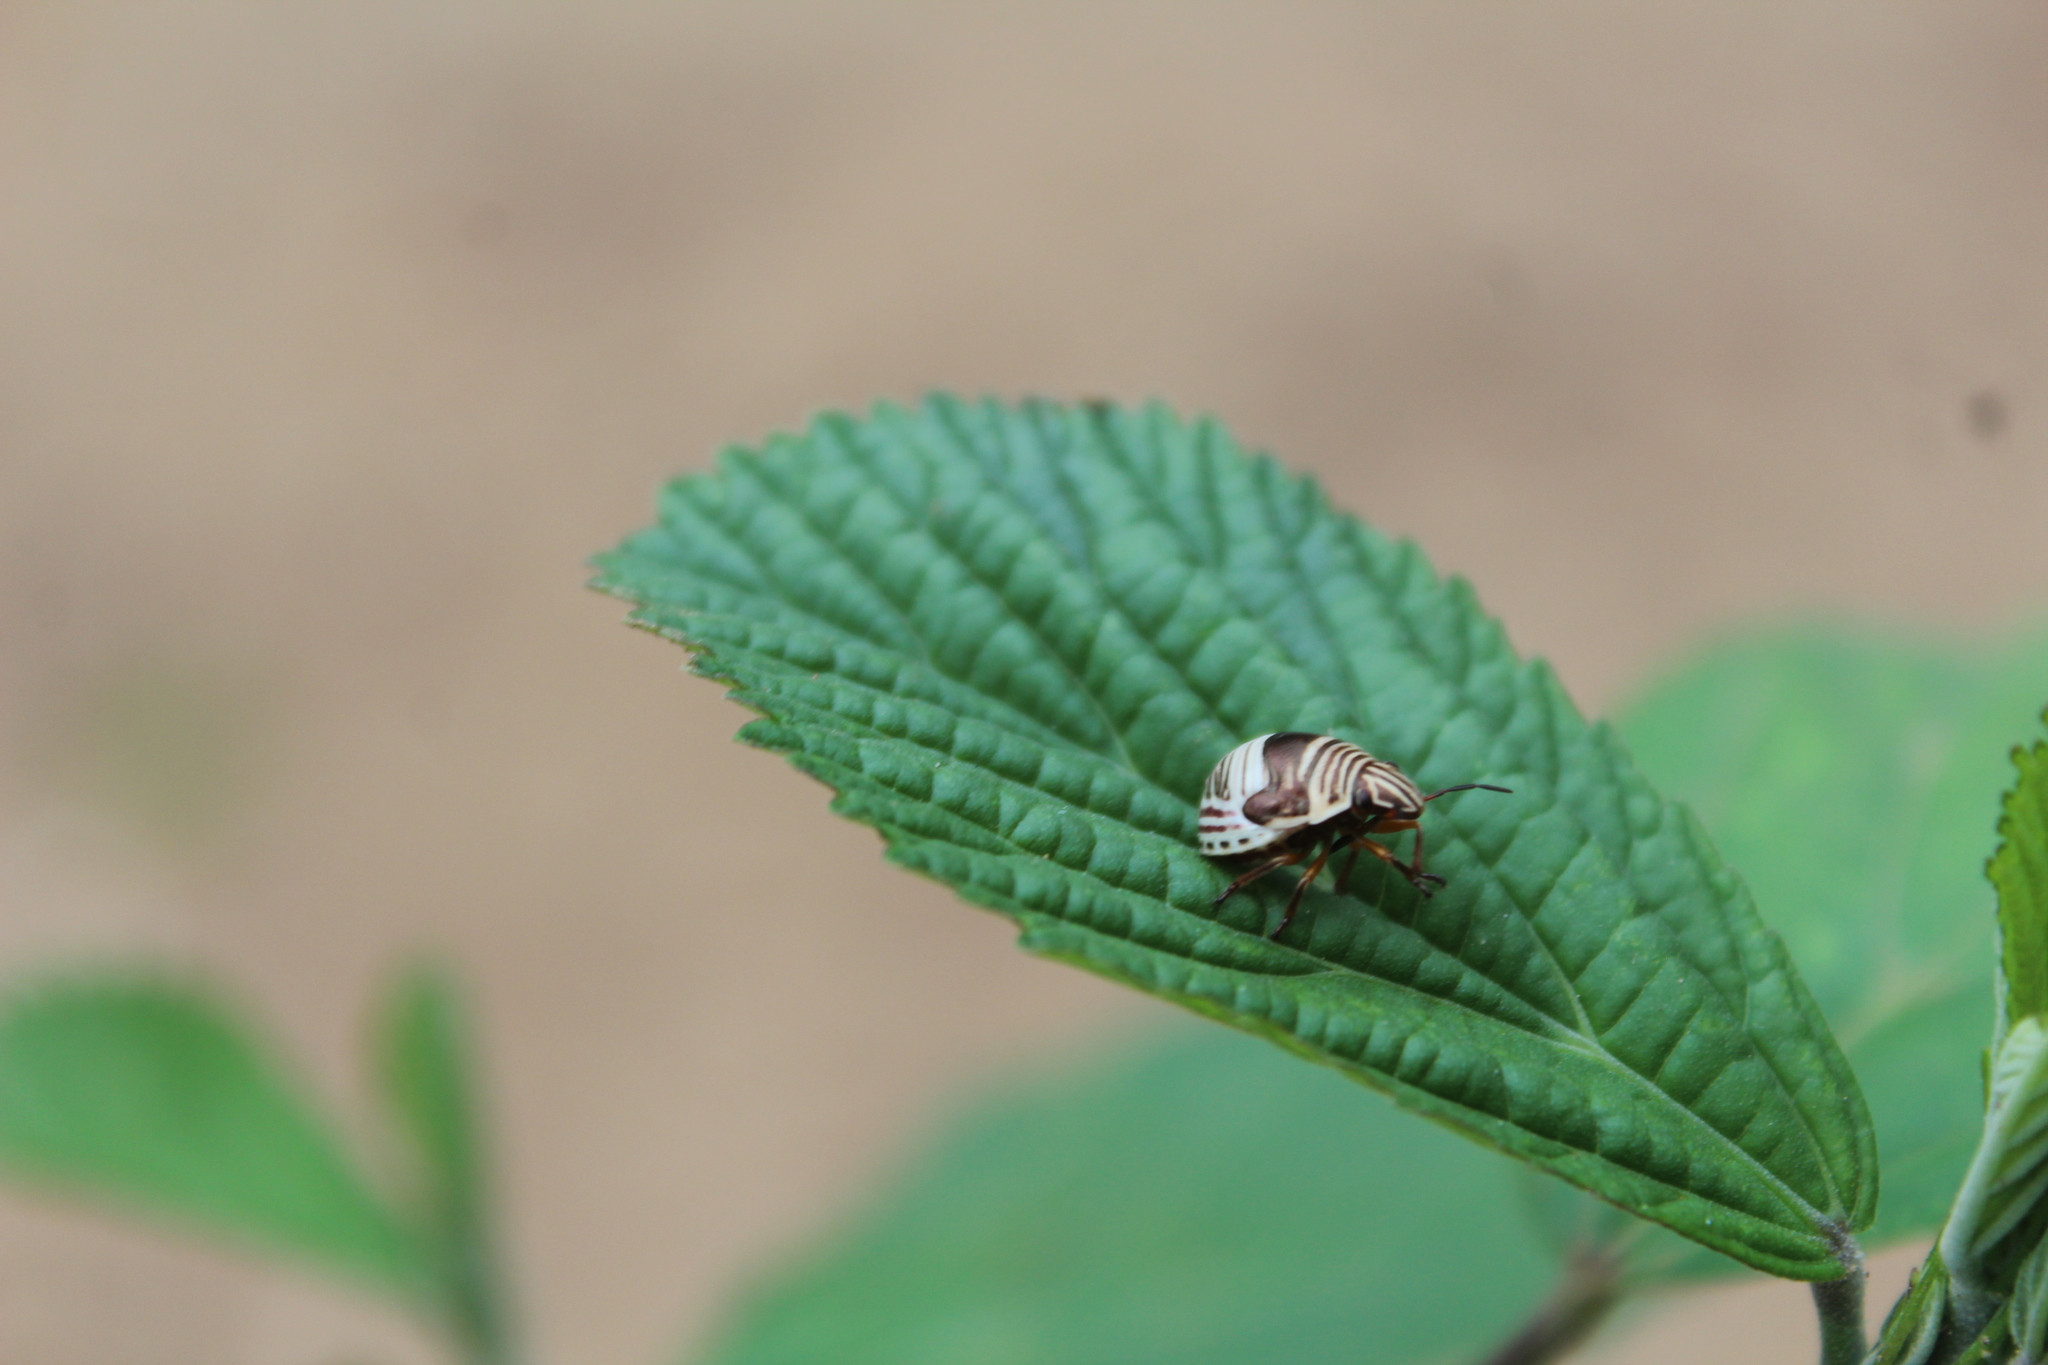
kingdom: Animalia
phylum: Arthropoda
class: Insecta
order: Hemiptera
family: Scutelleridae
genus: Orsilochides
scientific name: Orsilochides
